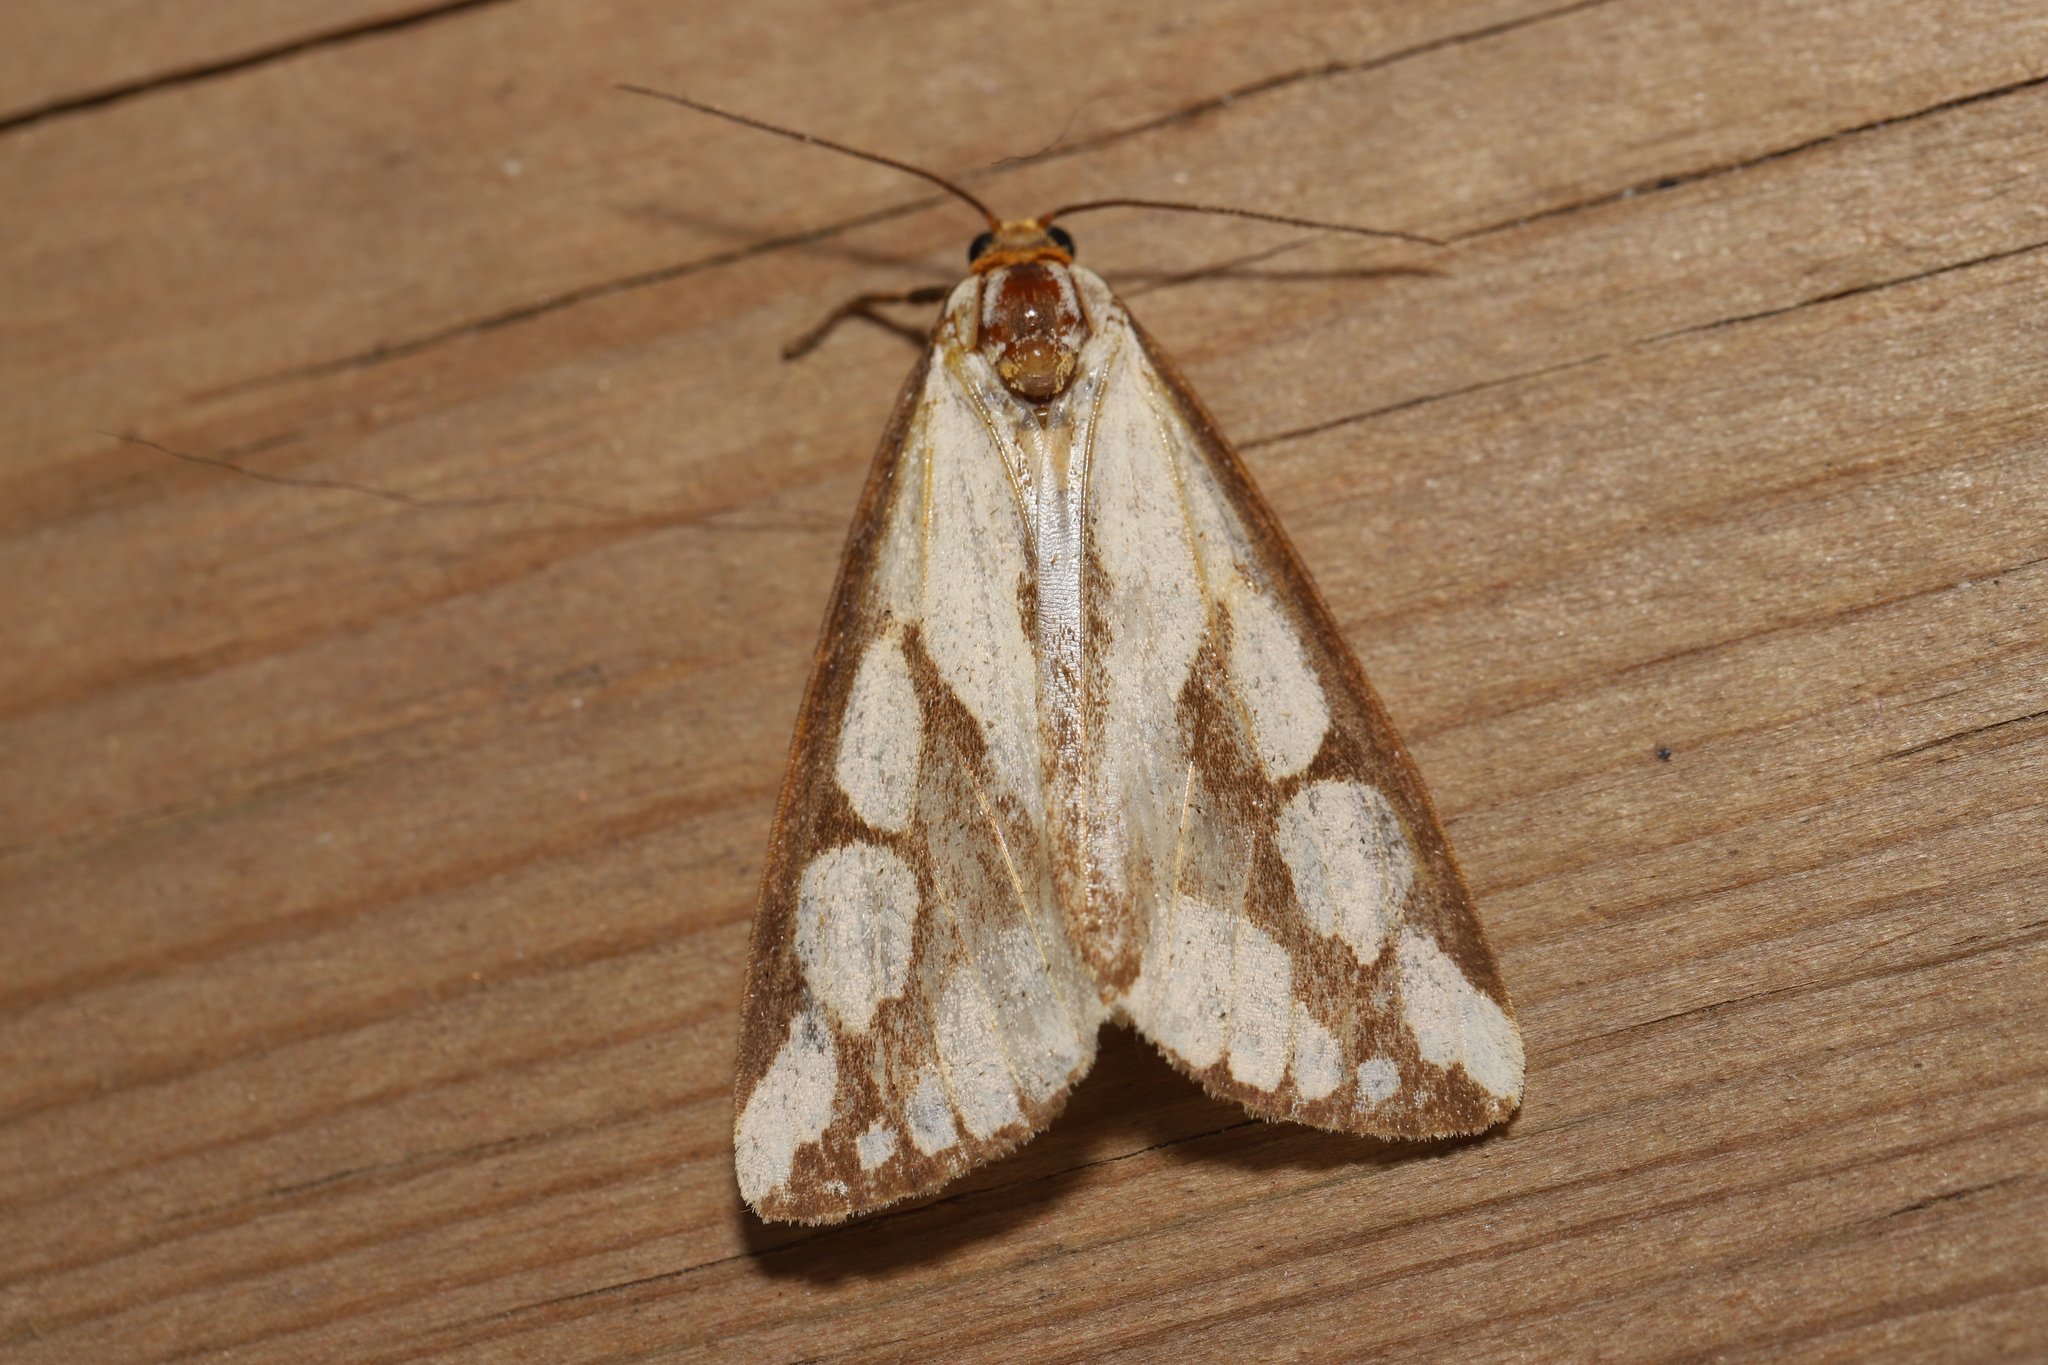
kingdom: Animalia
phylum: Arthropoda
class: Insecta
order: Lepidoptera
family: Erebidae
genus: Haploa
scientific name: Haploa confusa
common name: Confused haploa moth
